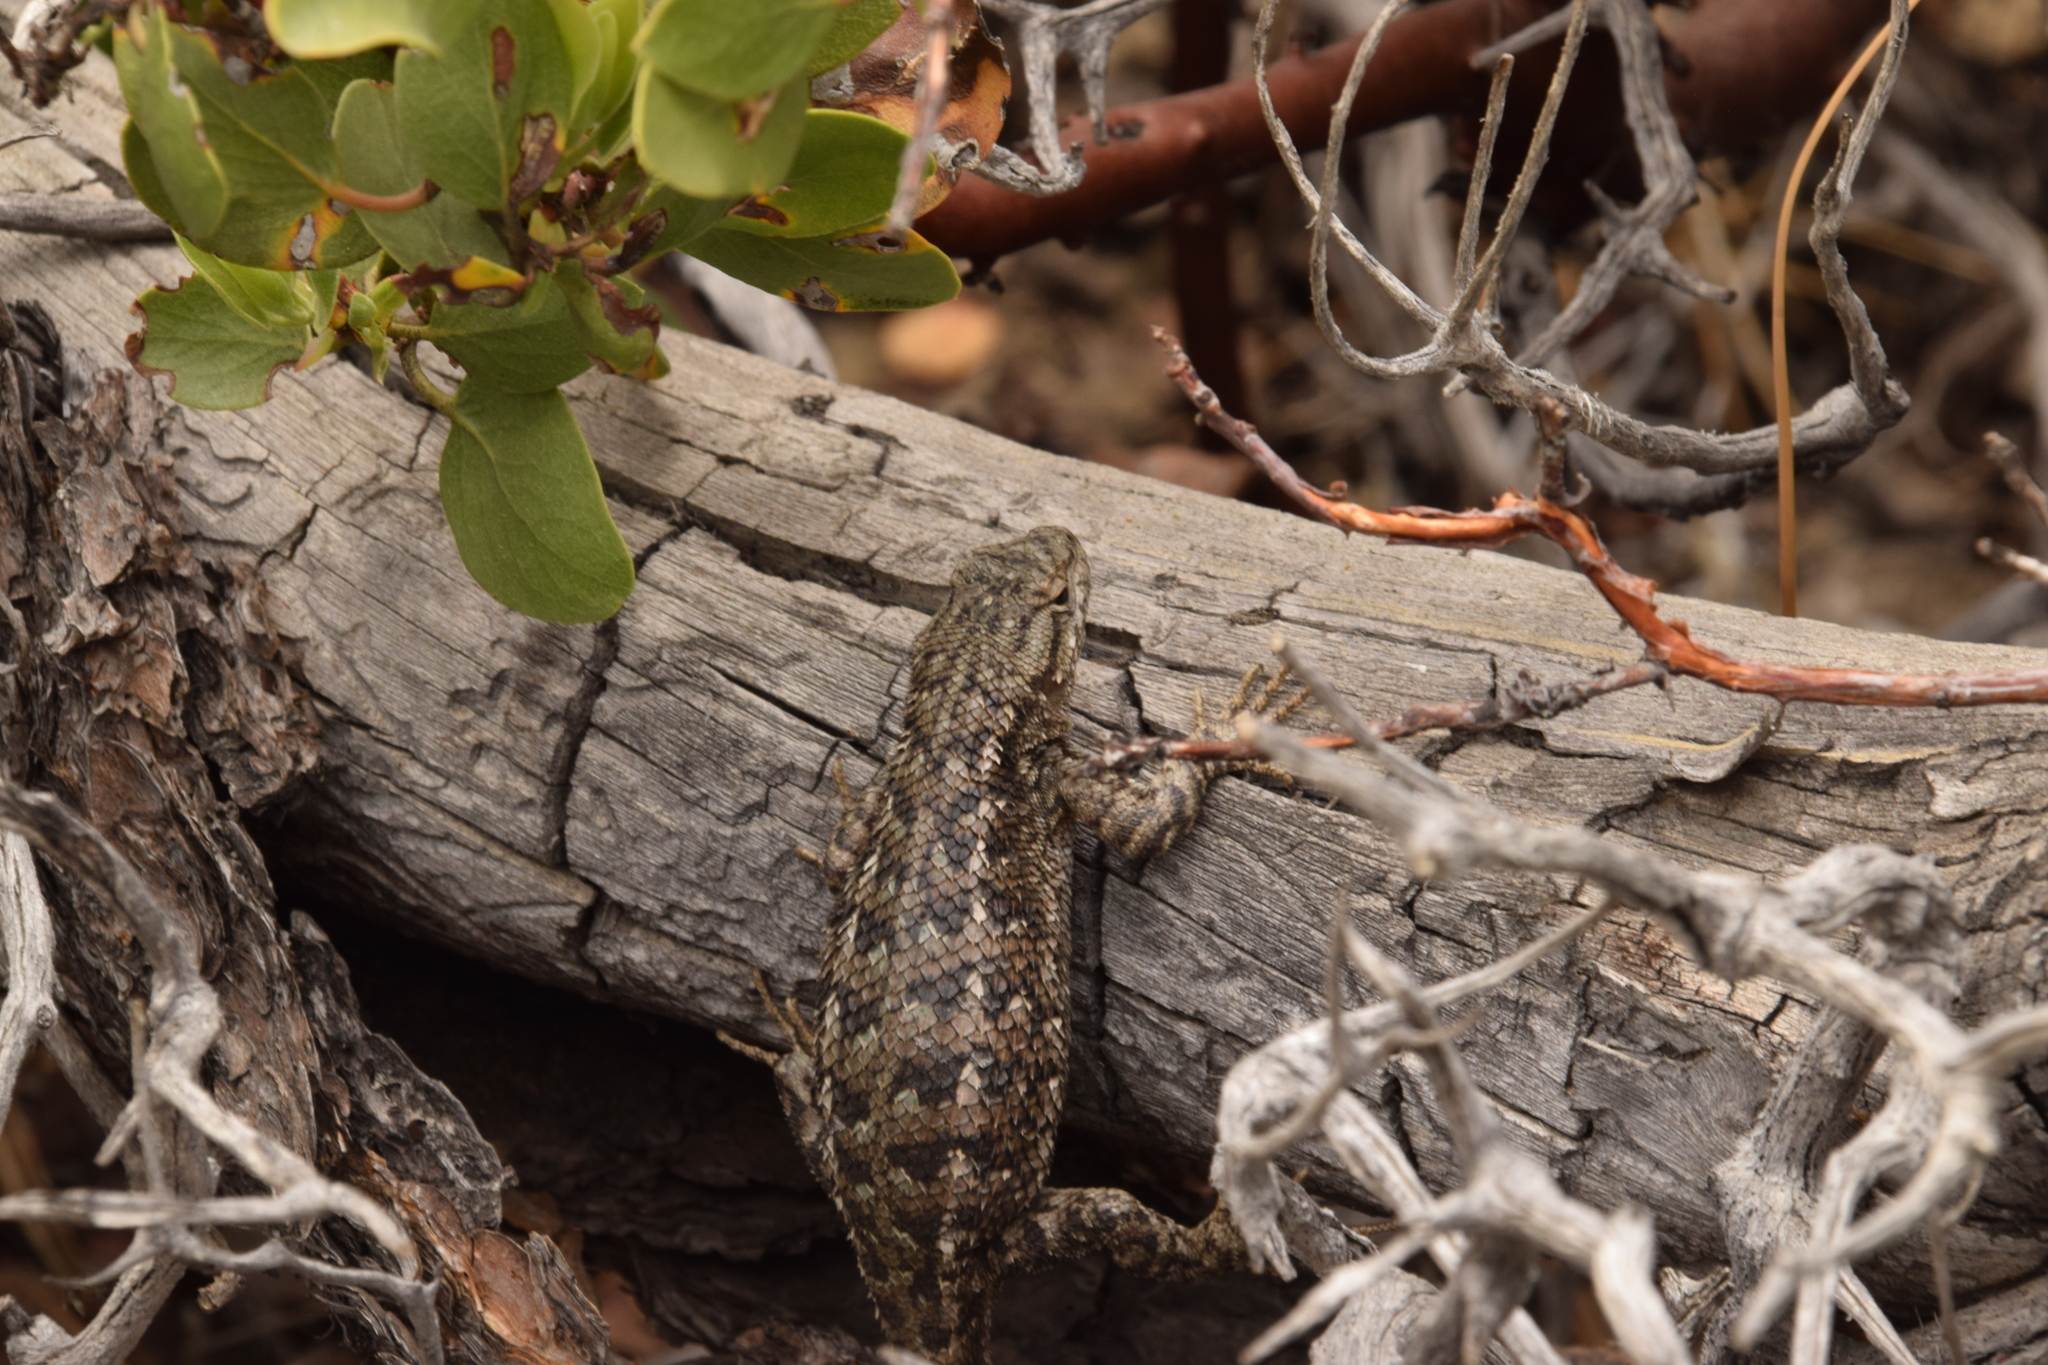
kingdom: Animalia
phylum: Chordata
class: Squamata
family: Phrynosomatidae
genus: Sceloporus
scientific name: Sceloporus occidentalis
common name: Western fence lizard
